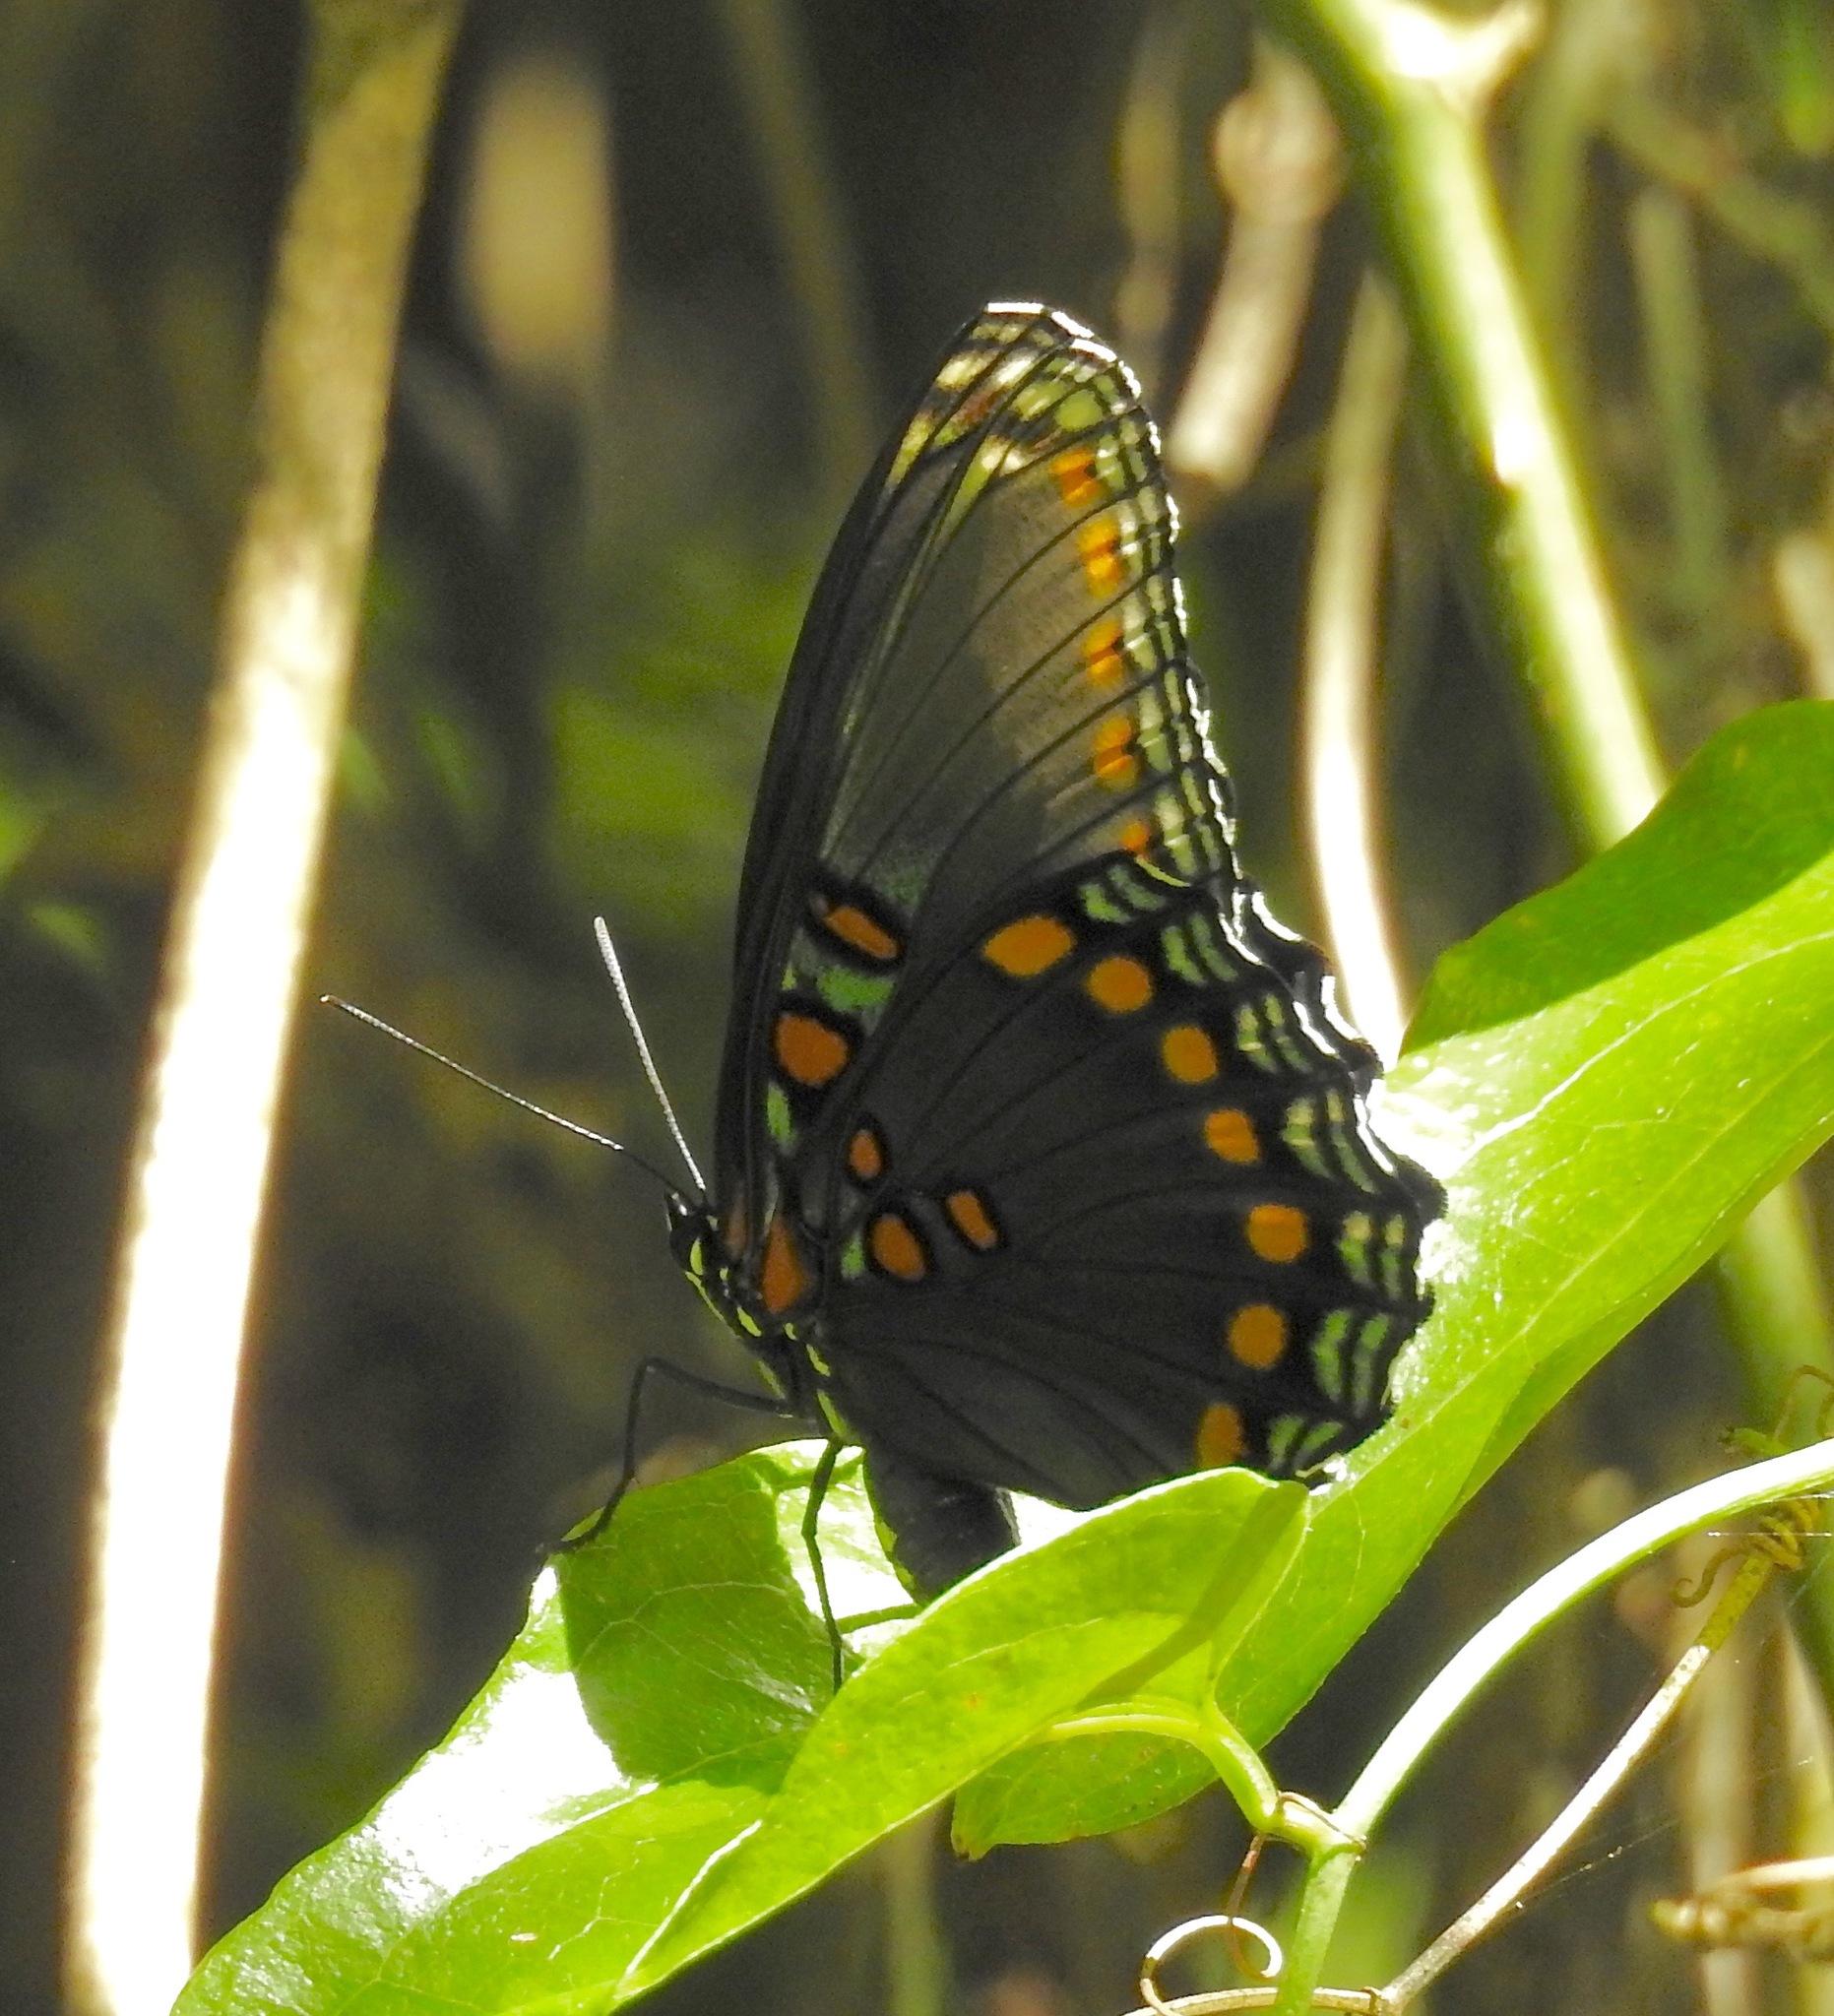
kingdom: Animalia
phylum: Arthropoda
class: Insecta
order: Lepidoptera
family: Nymphalidae
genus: Limenitis
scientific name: Limenitis astyanax
